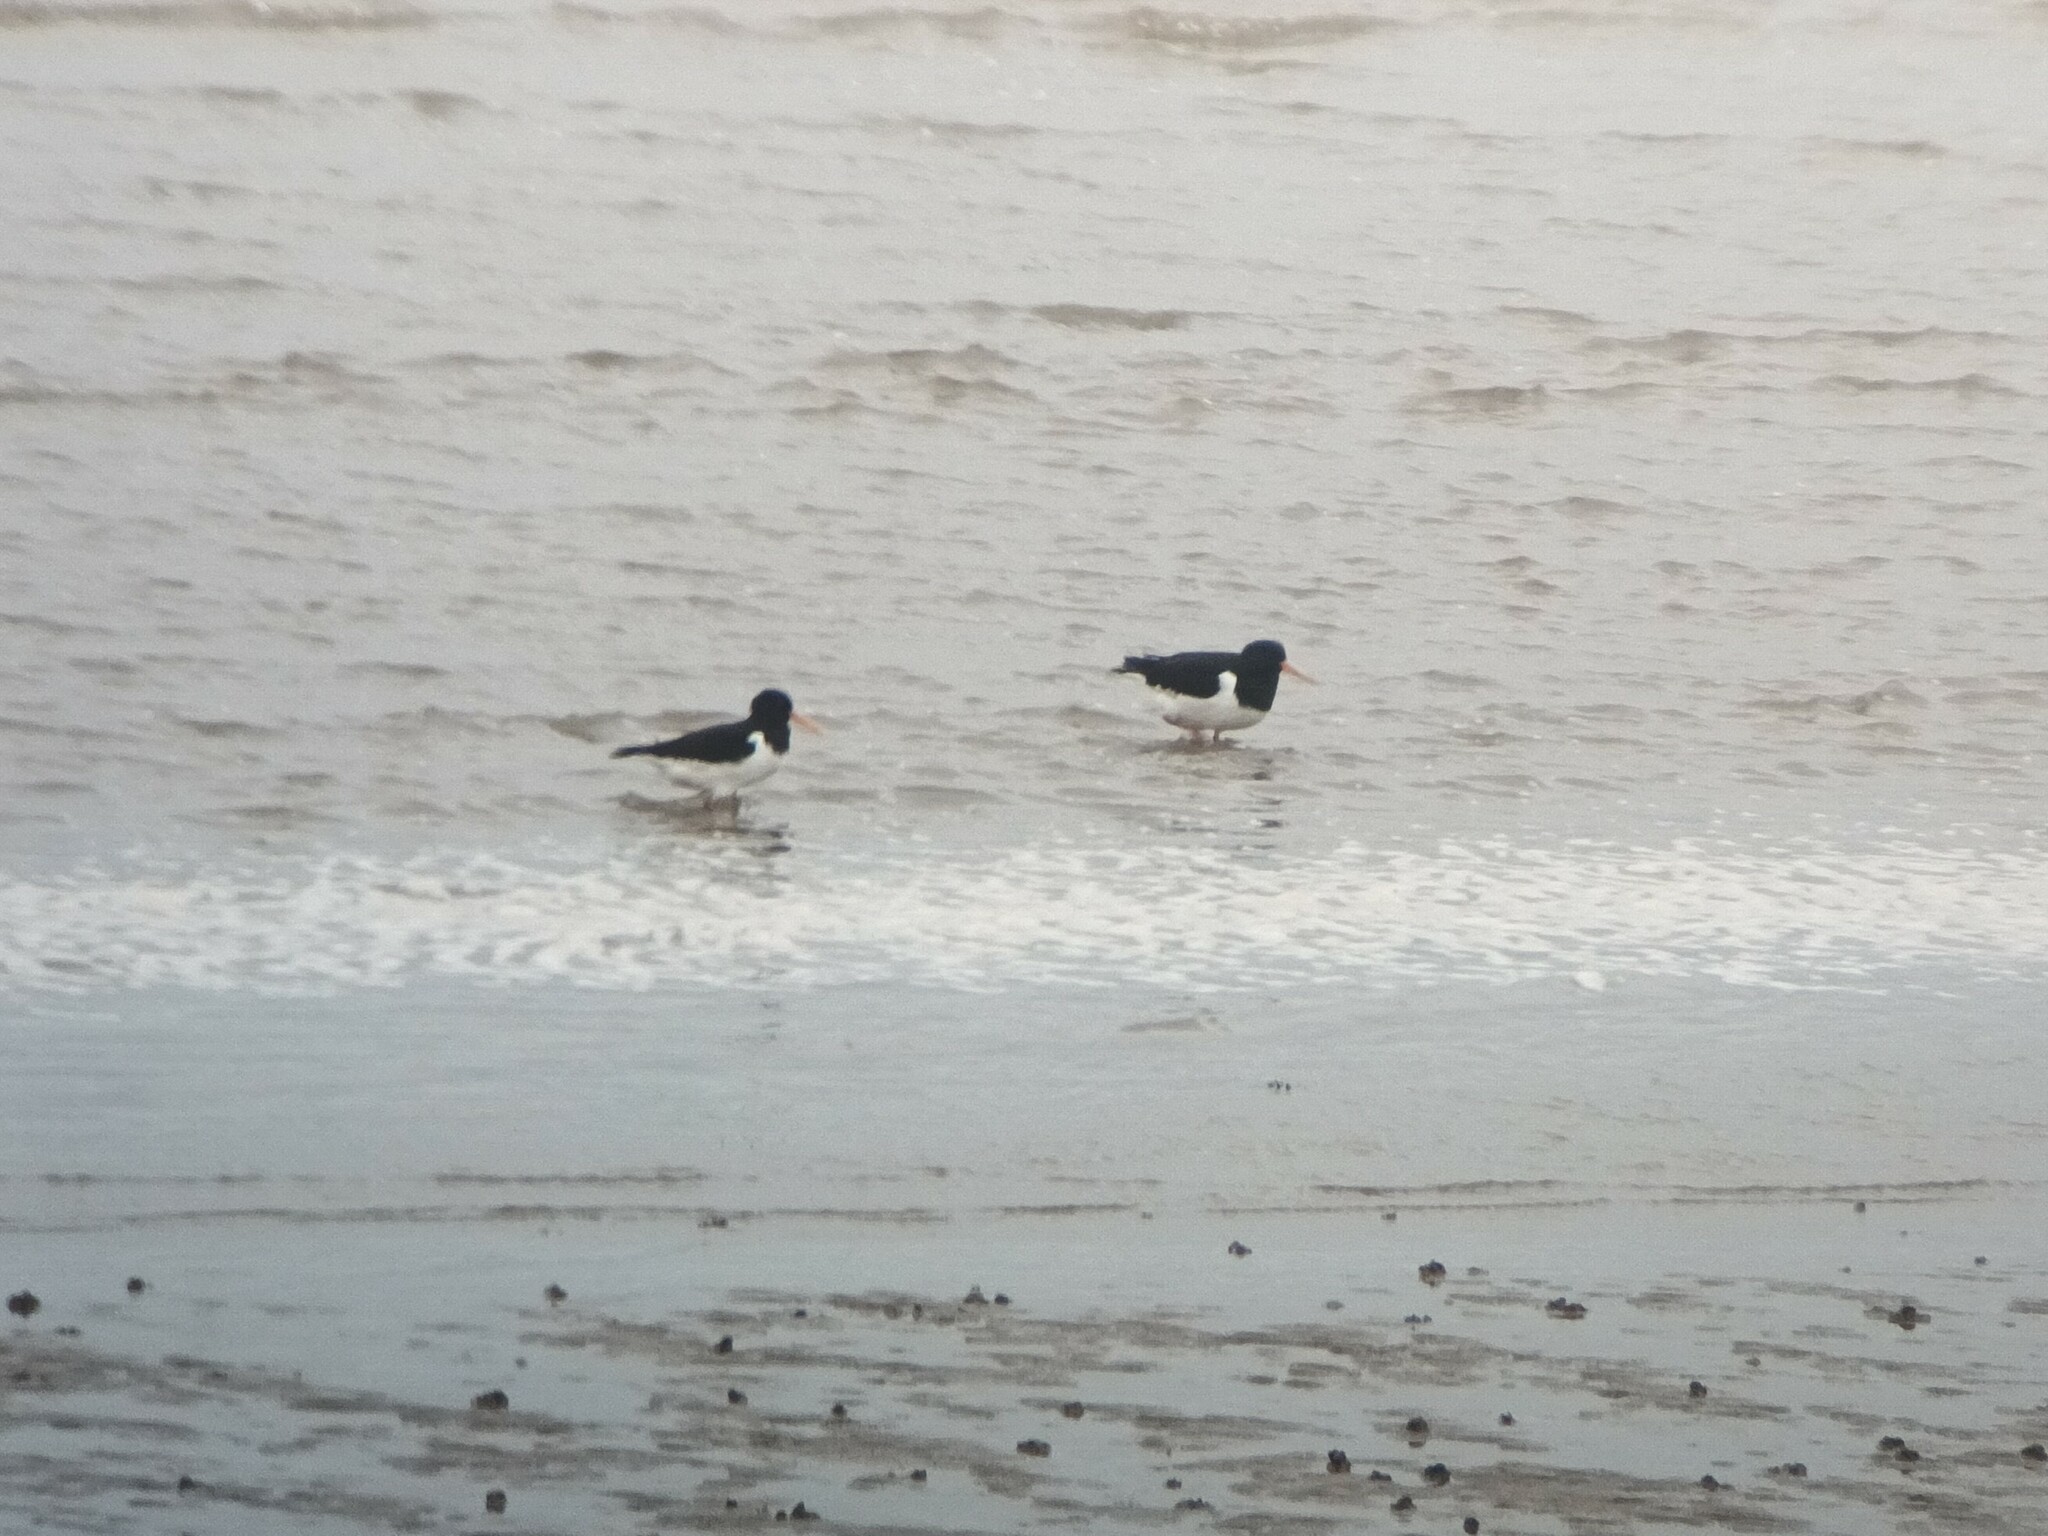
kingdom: Animalia
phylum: Chordata
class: Aves
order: Charadriiformes
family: Haematopodidae
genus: Haematopus
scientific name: Haematopus ostralegus
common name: Eurasian oystercatcher
